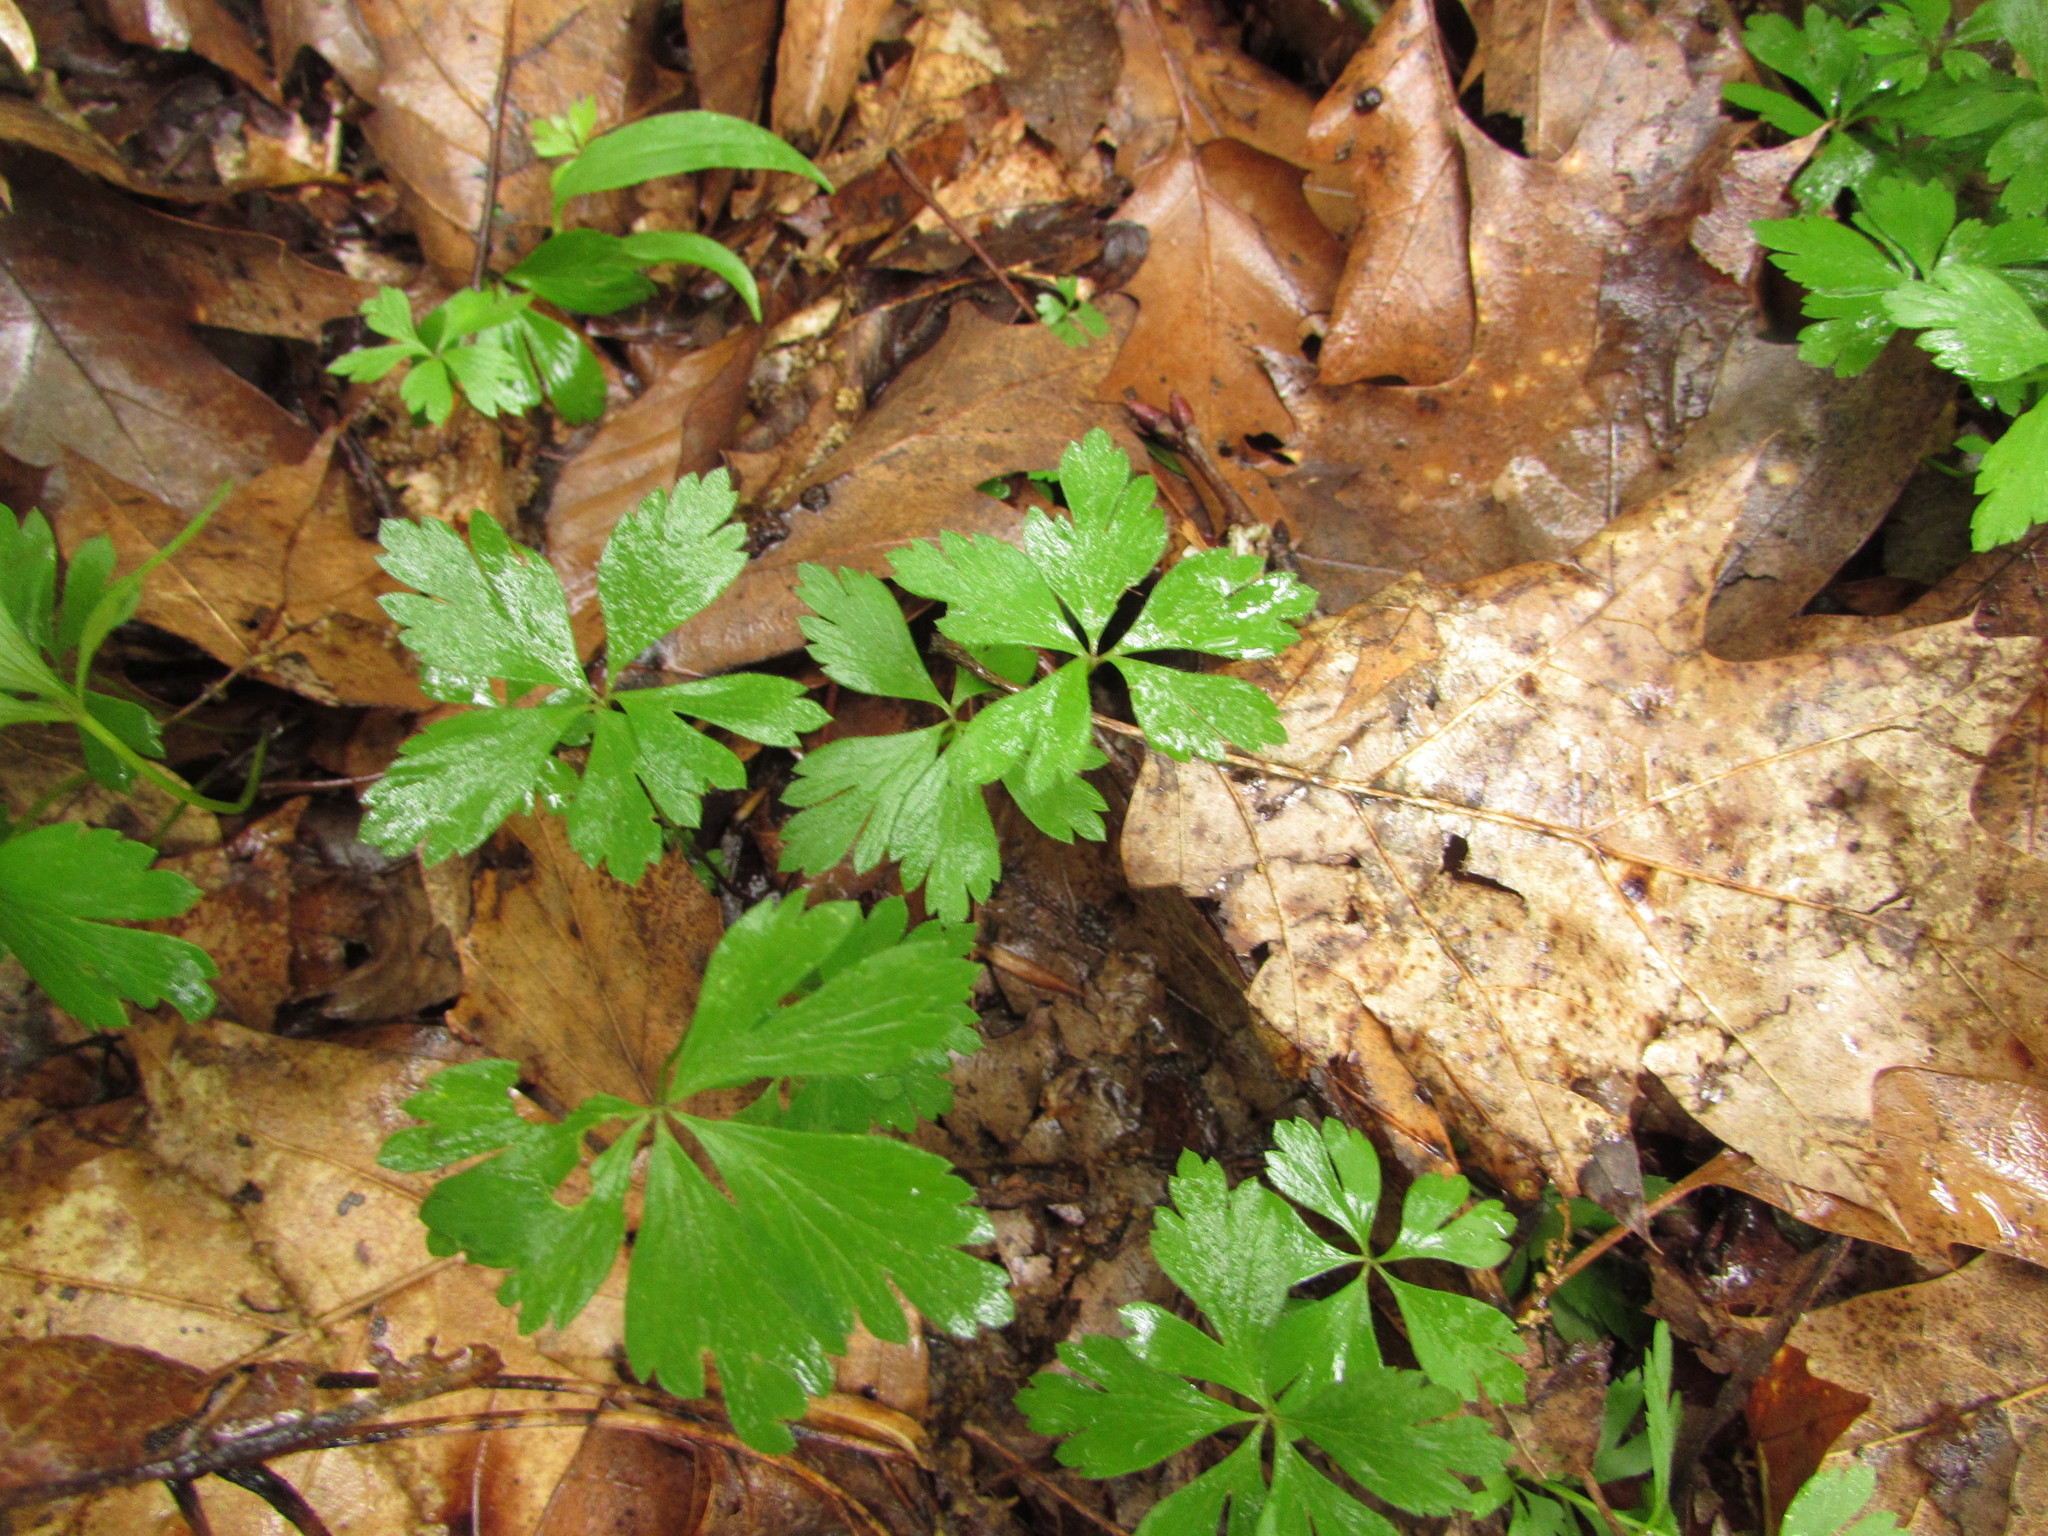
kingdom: Plantae
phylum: Tracheophyta
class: Magnoliopsida
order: Ranunculales
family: Ranunculaceae
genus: Anemone
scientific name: Anemone quinquefolia
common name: Wood anemone
